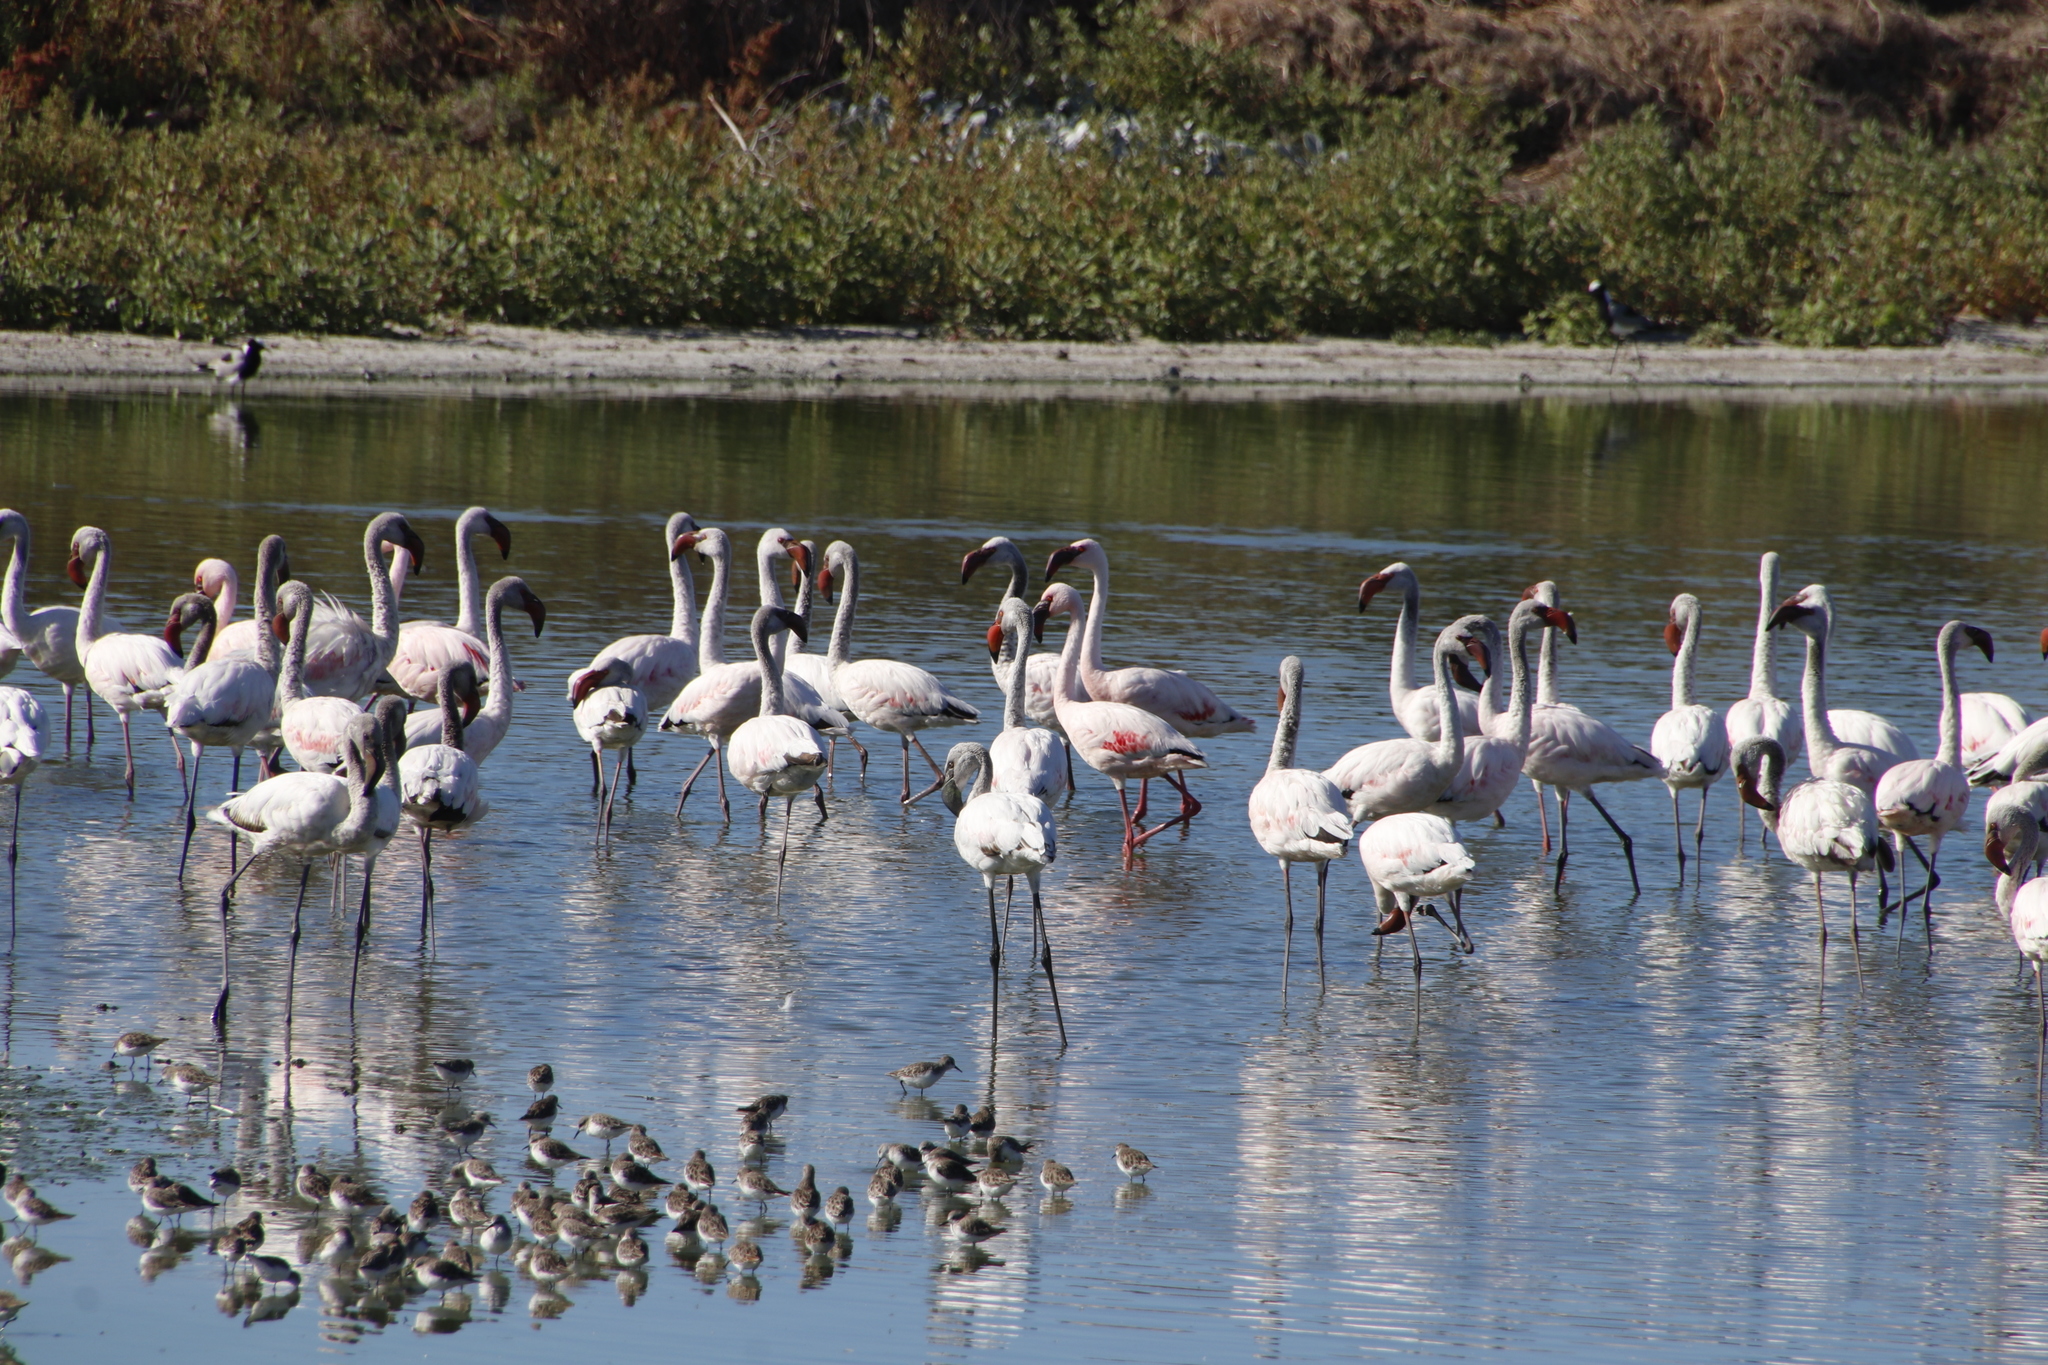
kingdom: Animalia
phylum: Chordata
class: Aves
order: Phoenicopteriformes
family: Phoenicopteridae
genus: Phoeniconaias
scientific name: Phoeniconaias minor
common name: Lesser flamingo
